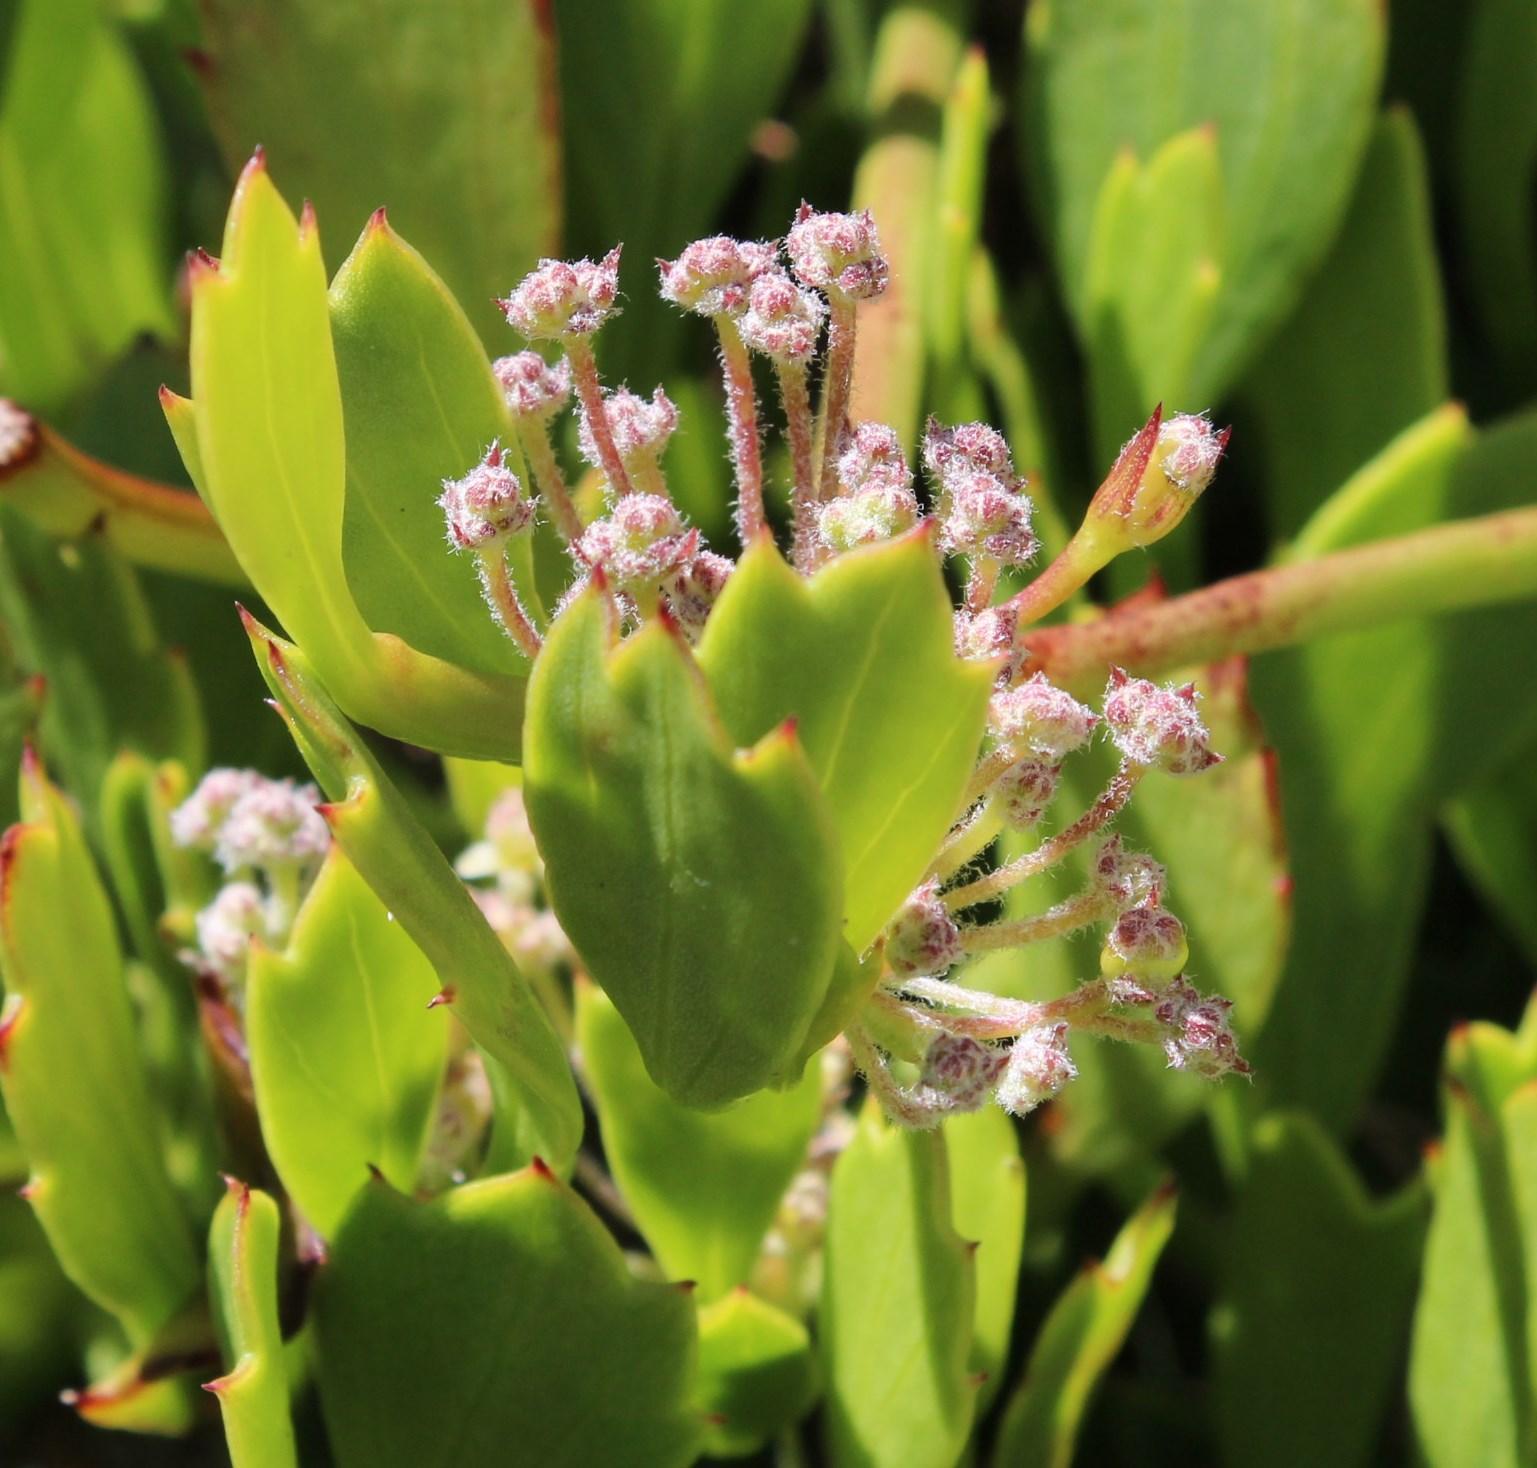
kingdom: Plantae
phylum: Tracheophyta
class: Magnoliopsida
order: Apiales
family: Apiaceae
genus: Centella
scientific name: Centella triloba
